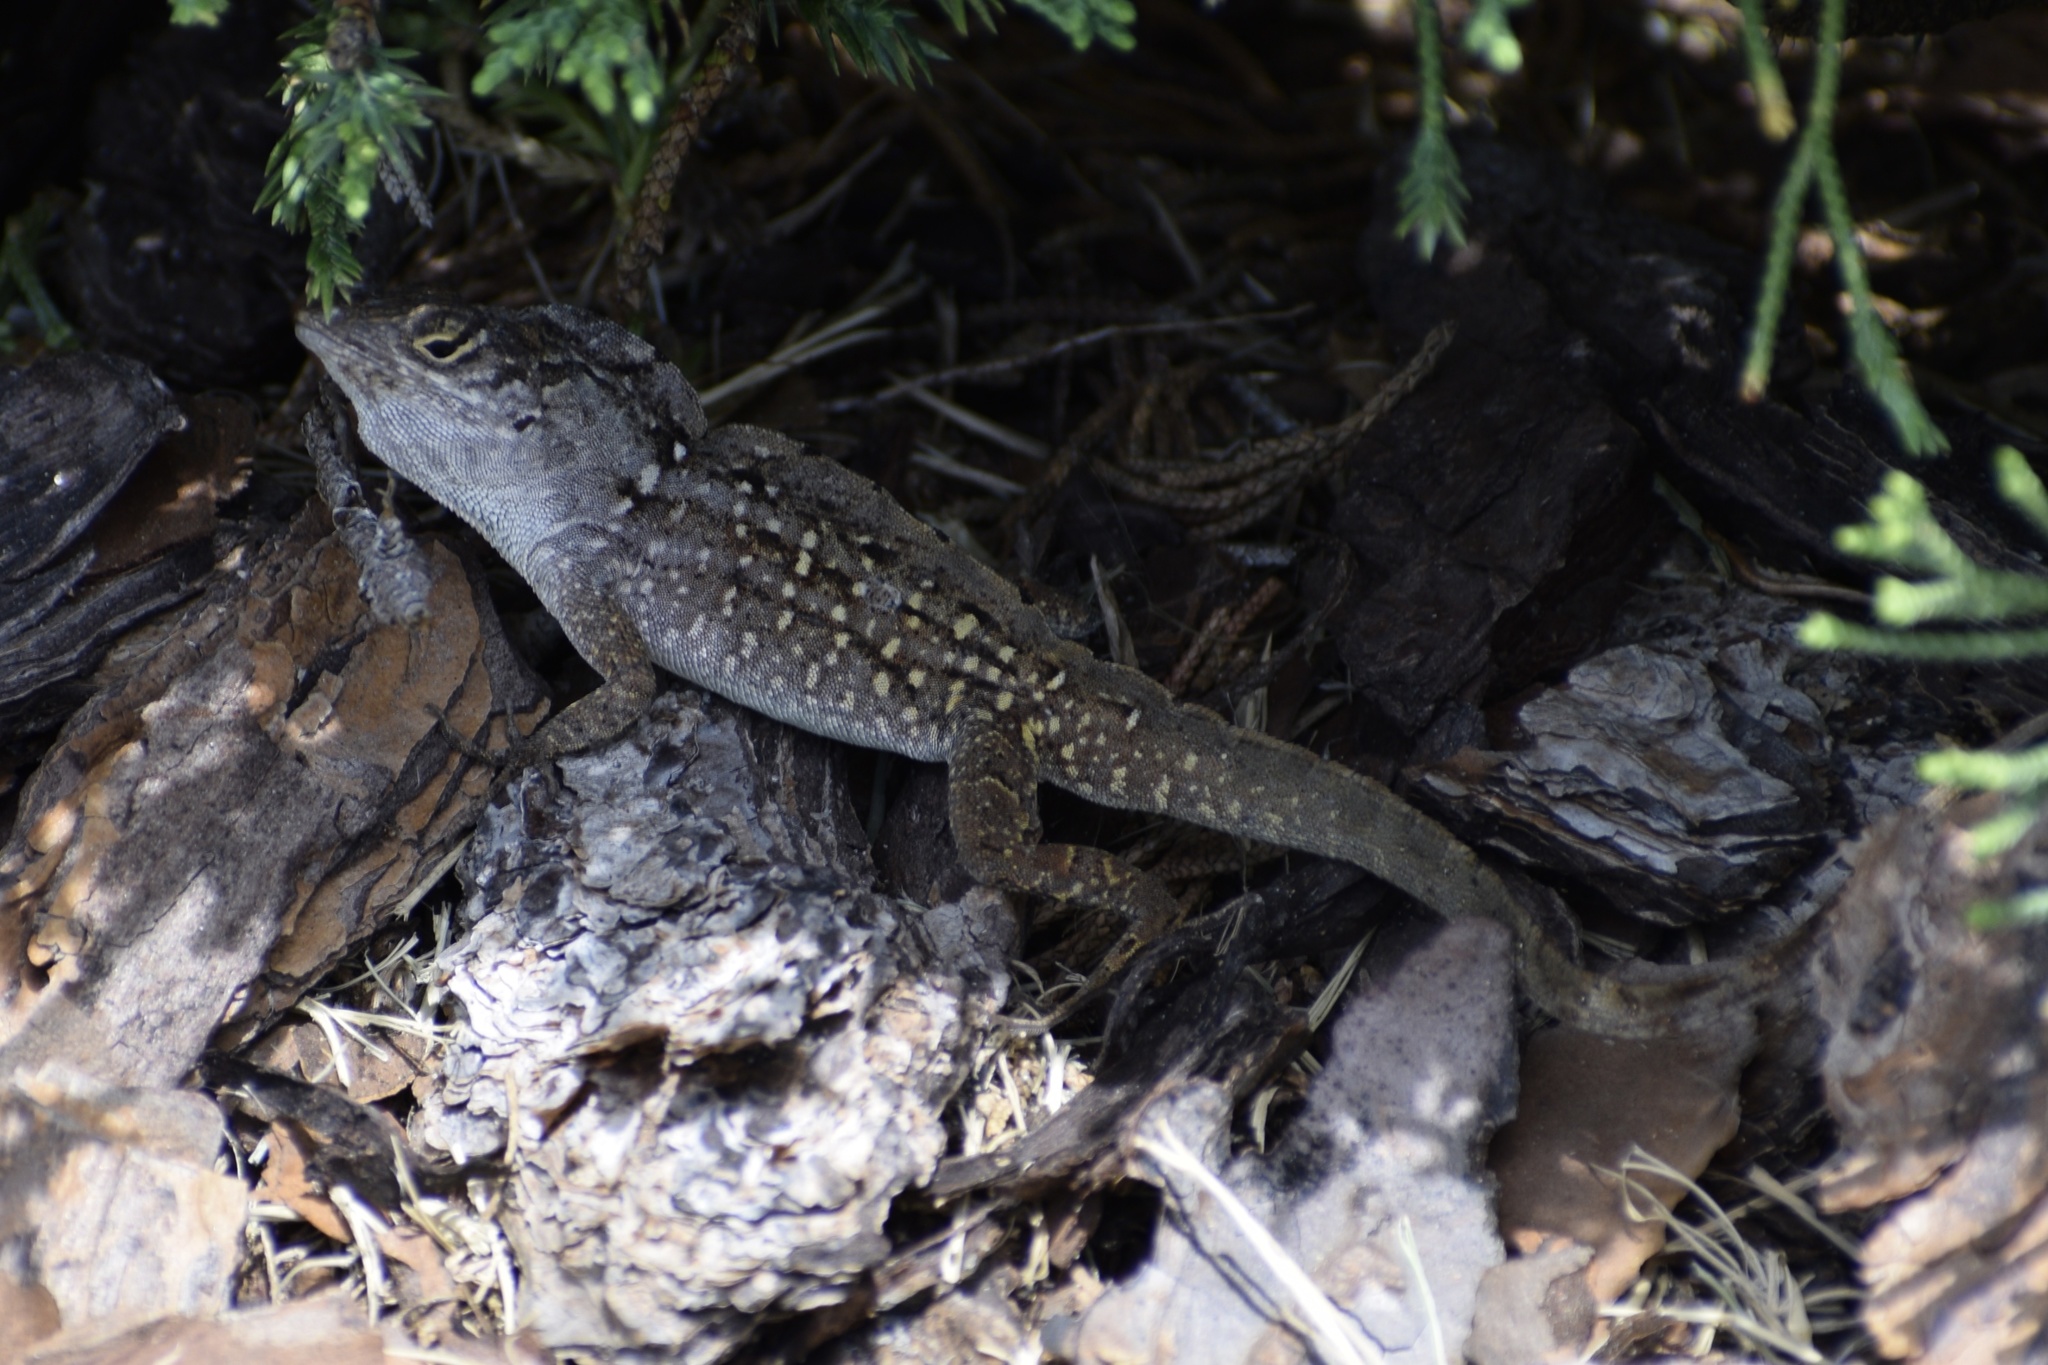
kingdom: Animalia
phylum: Chordata
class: Squamata
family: Dactyloidae
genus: Anolis
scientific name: Anolis sagrei
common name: Brown anole
